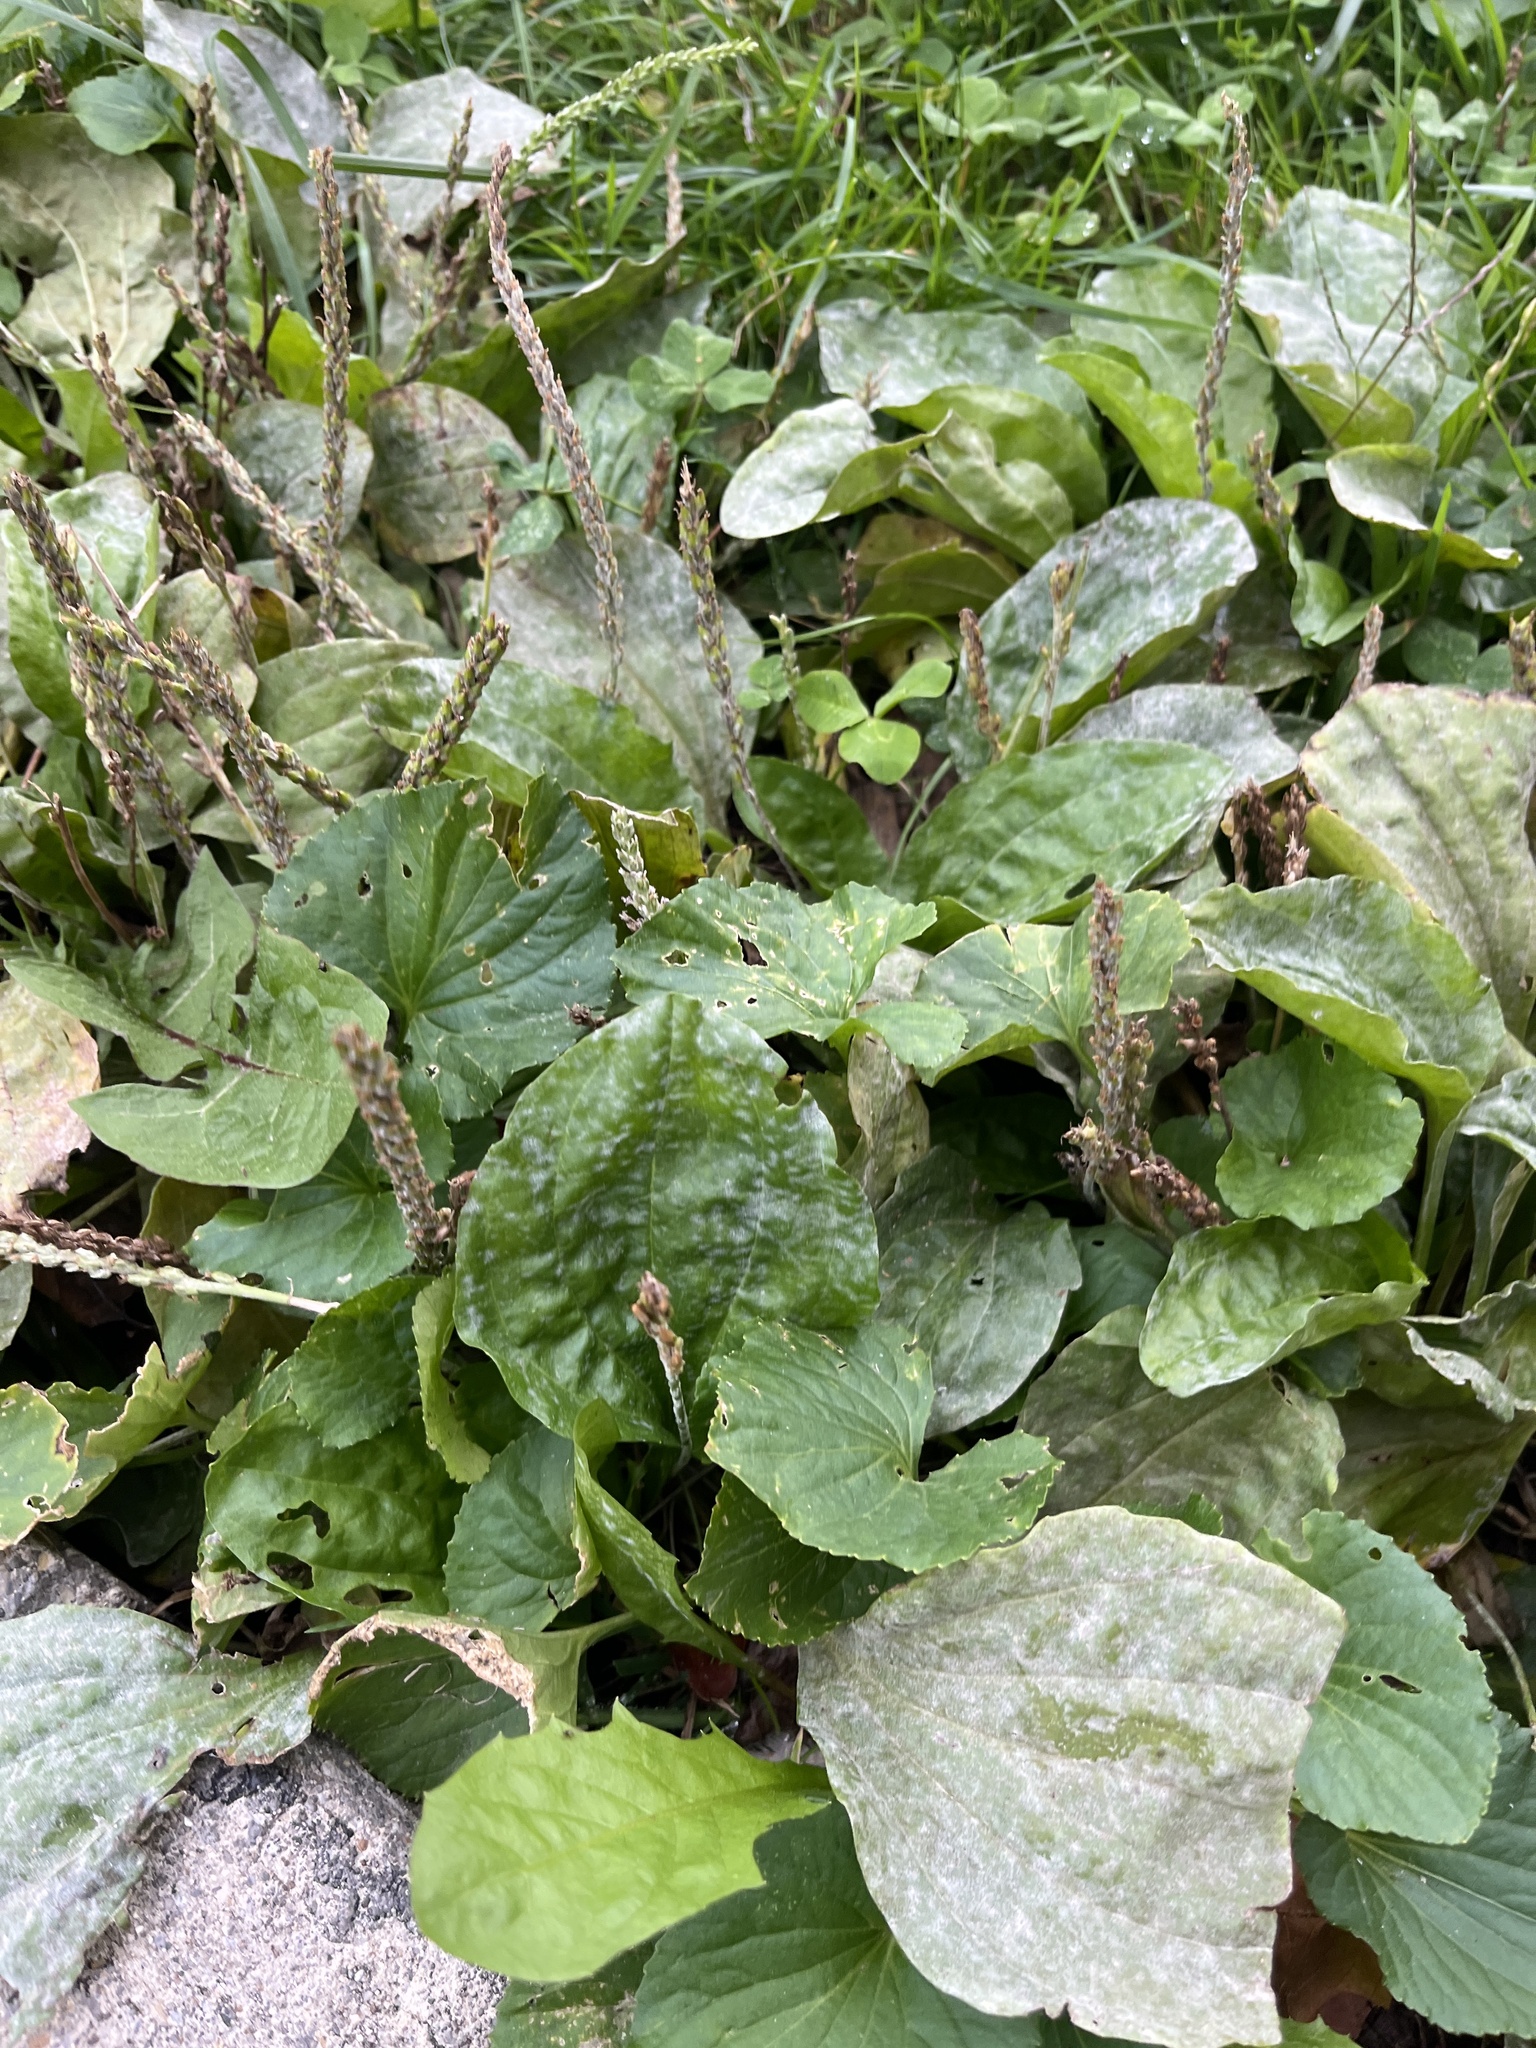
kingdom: Plantae
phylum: Tracheophyta
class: Magnoliopsida
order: Lamiales
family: Plantaginaceae
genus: Plantago
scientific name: Plantago major
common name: Common plantain
